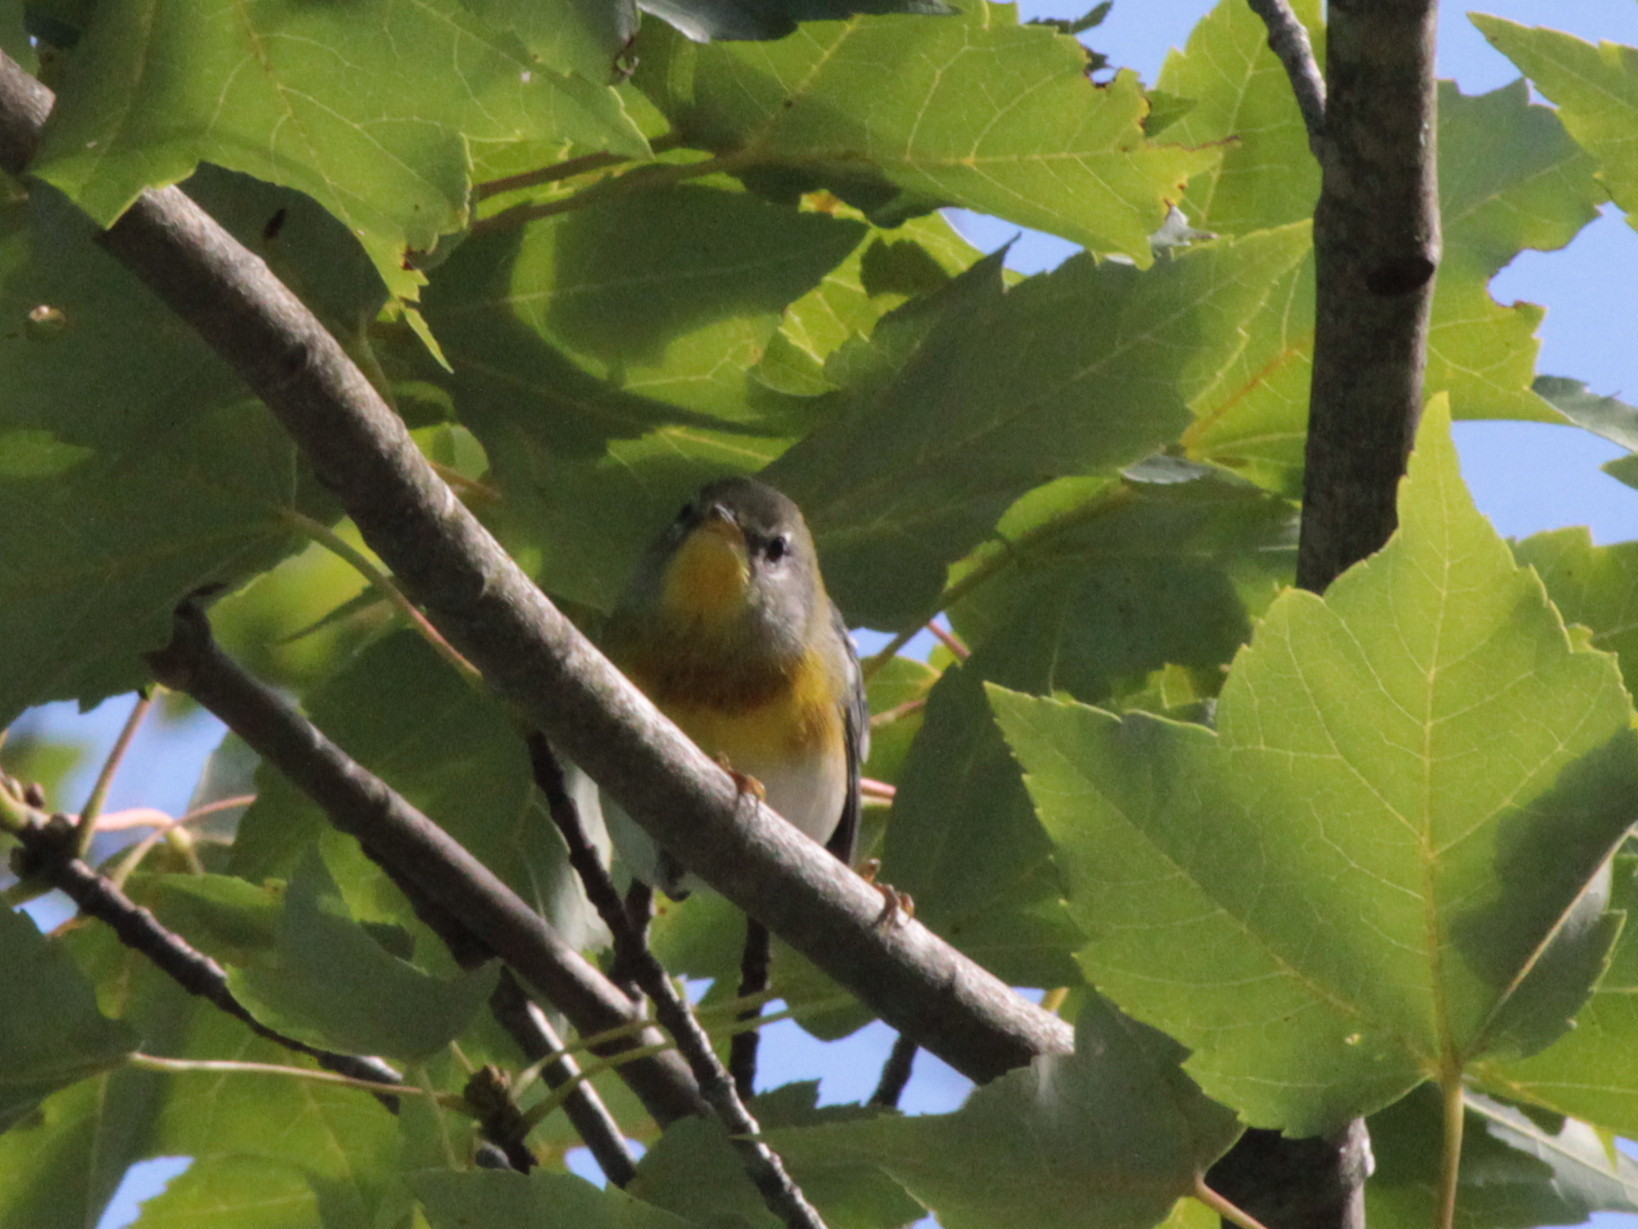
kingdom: Animalia
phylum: Chordata
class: Aves
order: Passeriformes
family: Parulidae
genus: Setophaga
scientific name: Setophaga americana
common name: Northern parula
